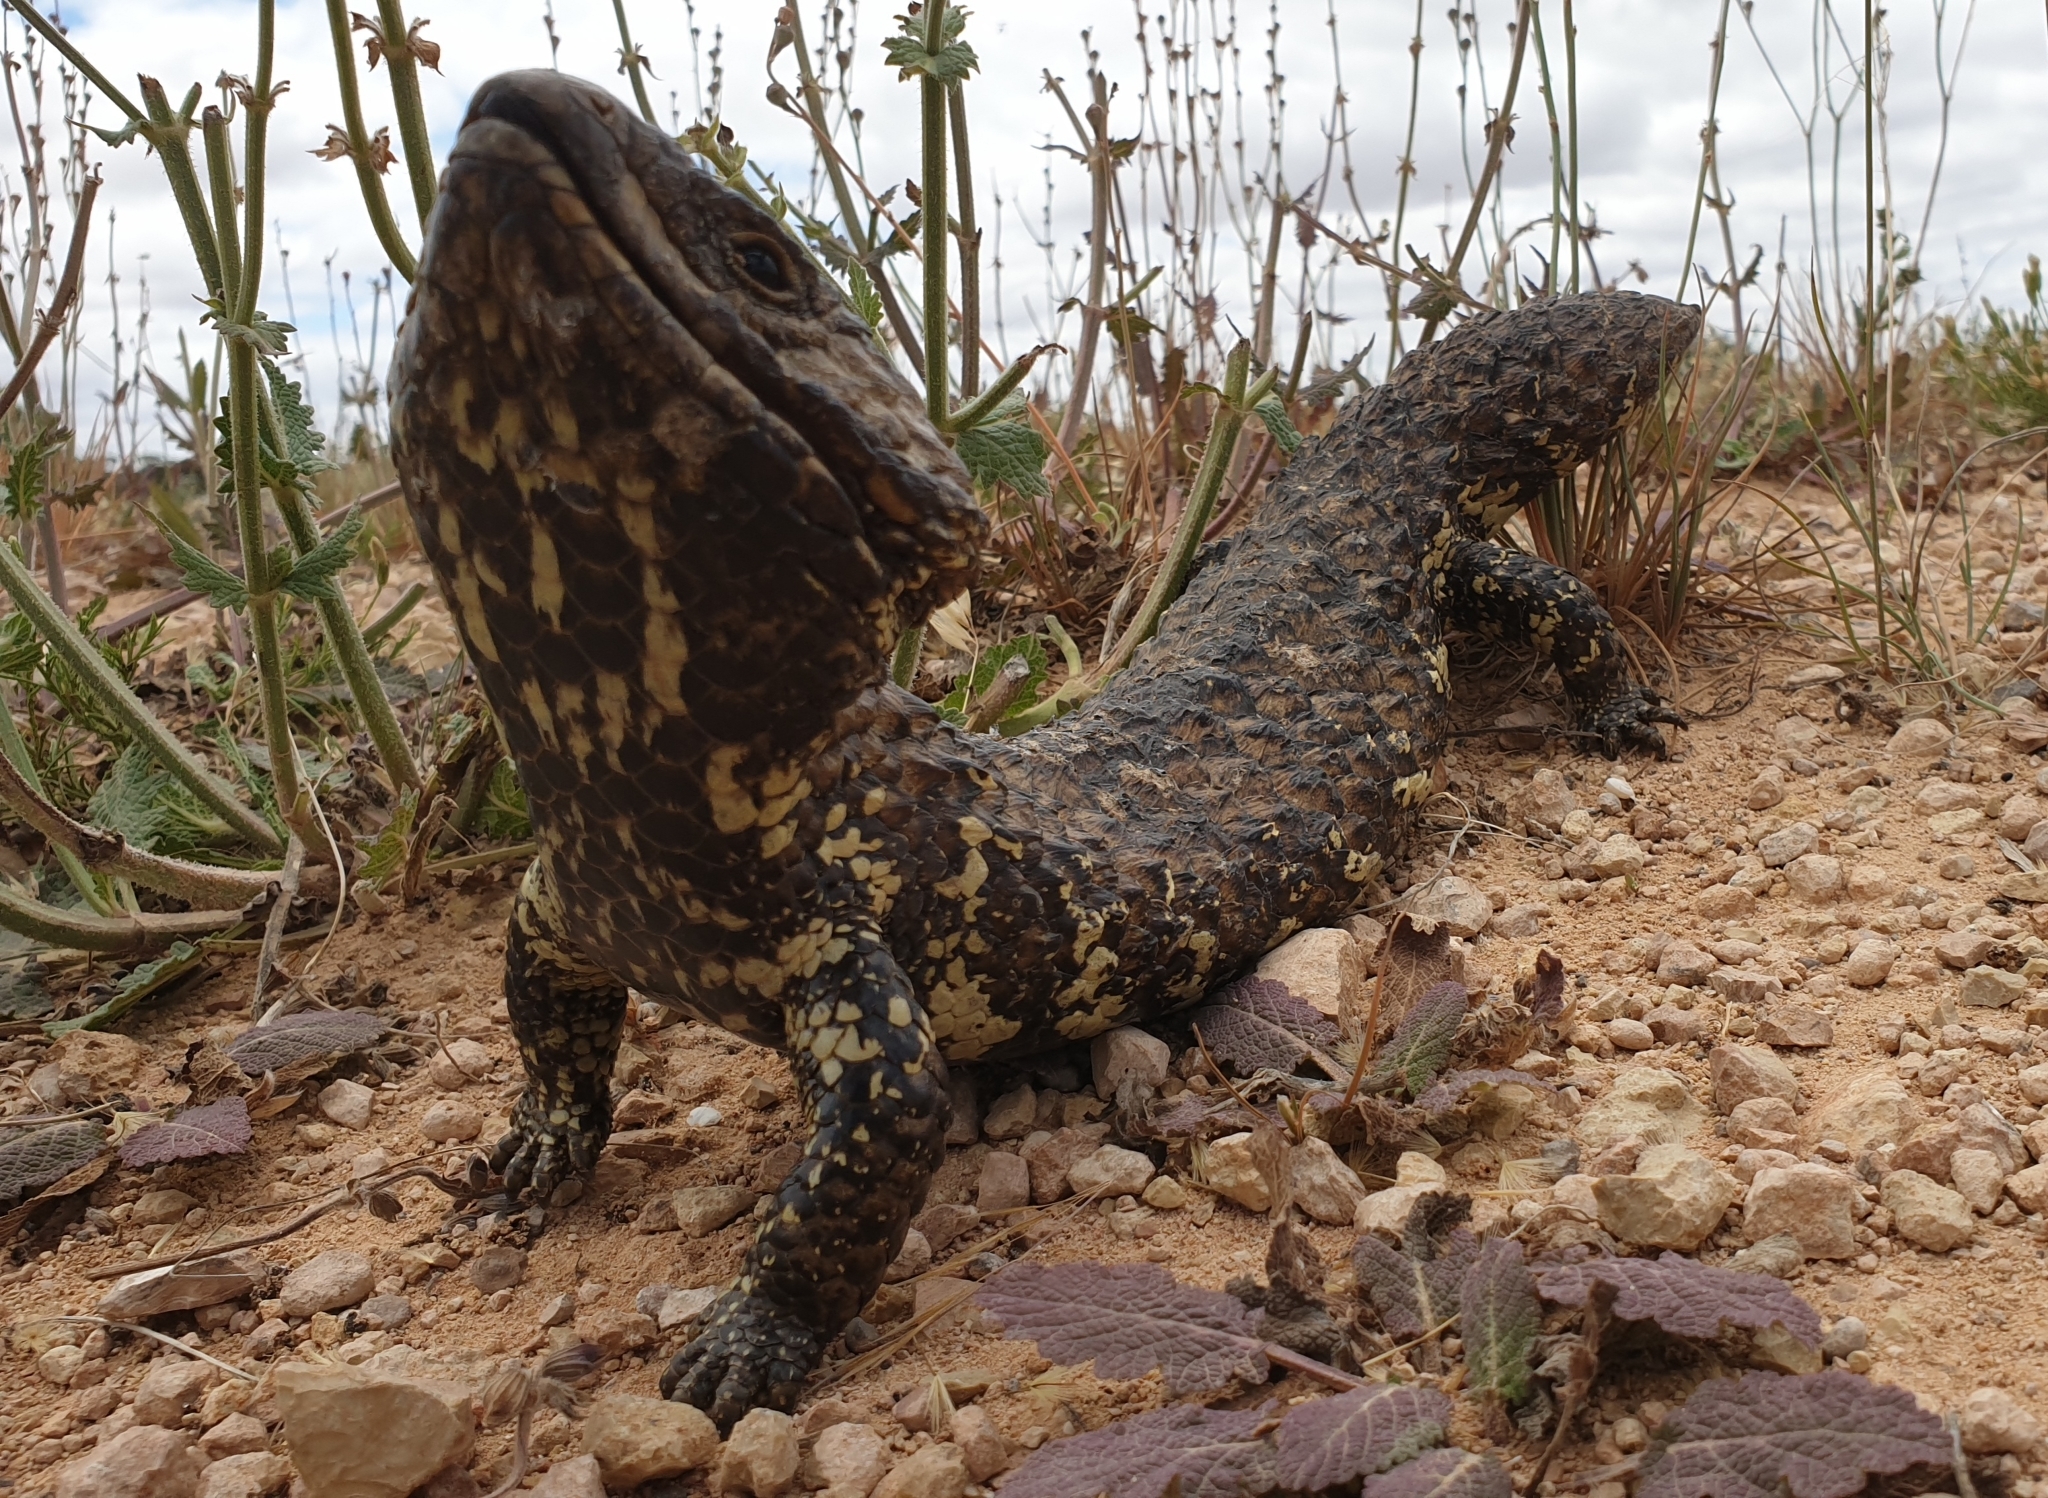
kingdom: Animalia
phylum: Chordata
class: Squamata
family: Scincidae
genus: Tiliqua
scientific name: Tiliqua rugosa
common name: Pinecone lizard
